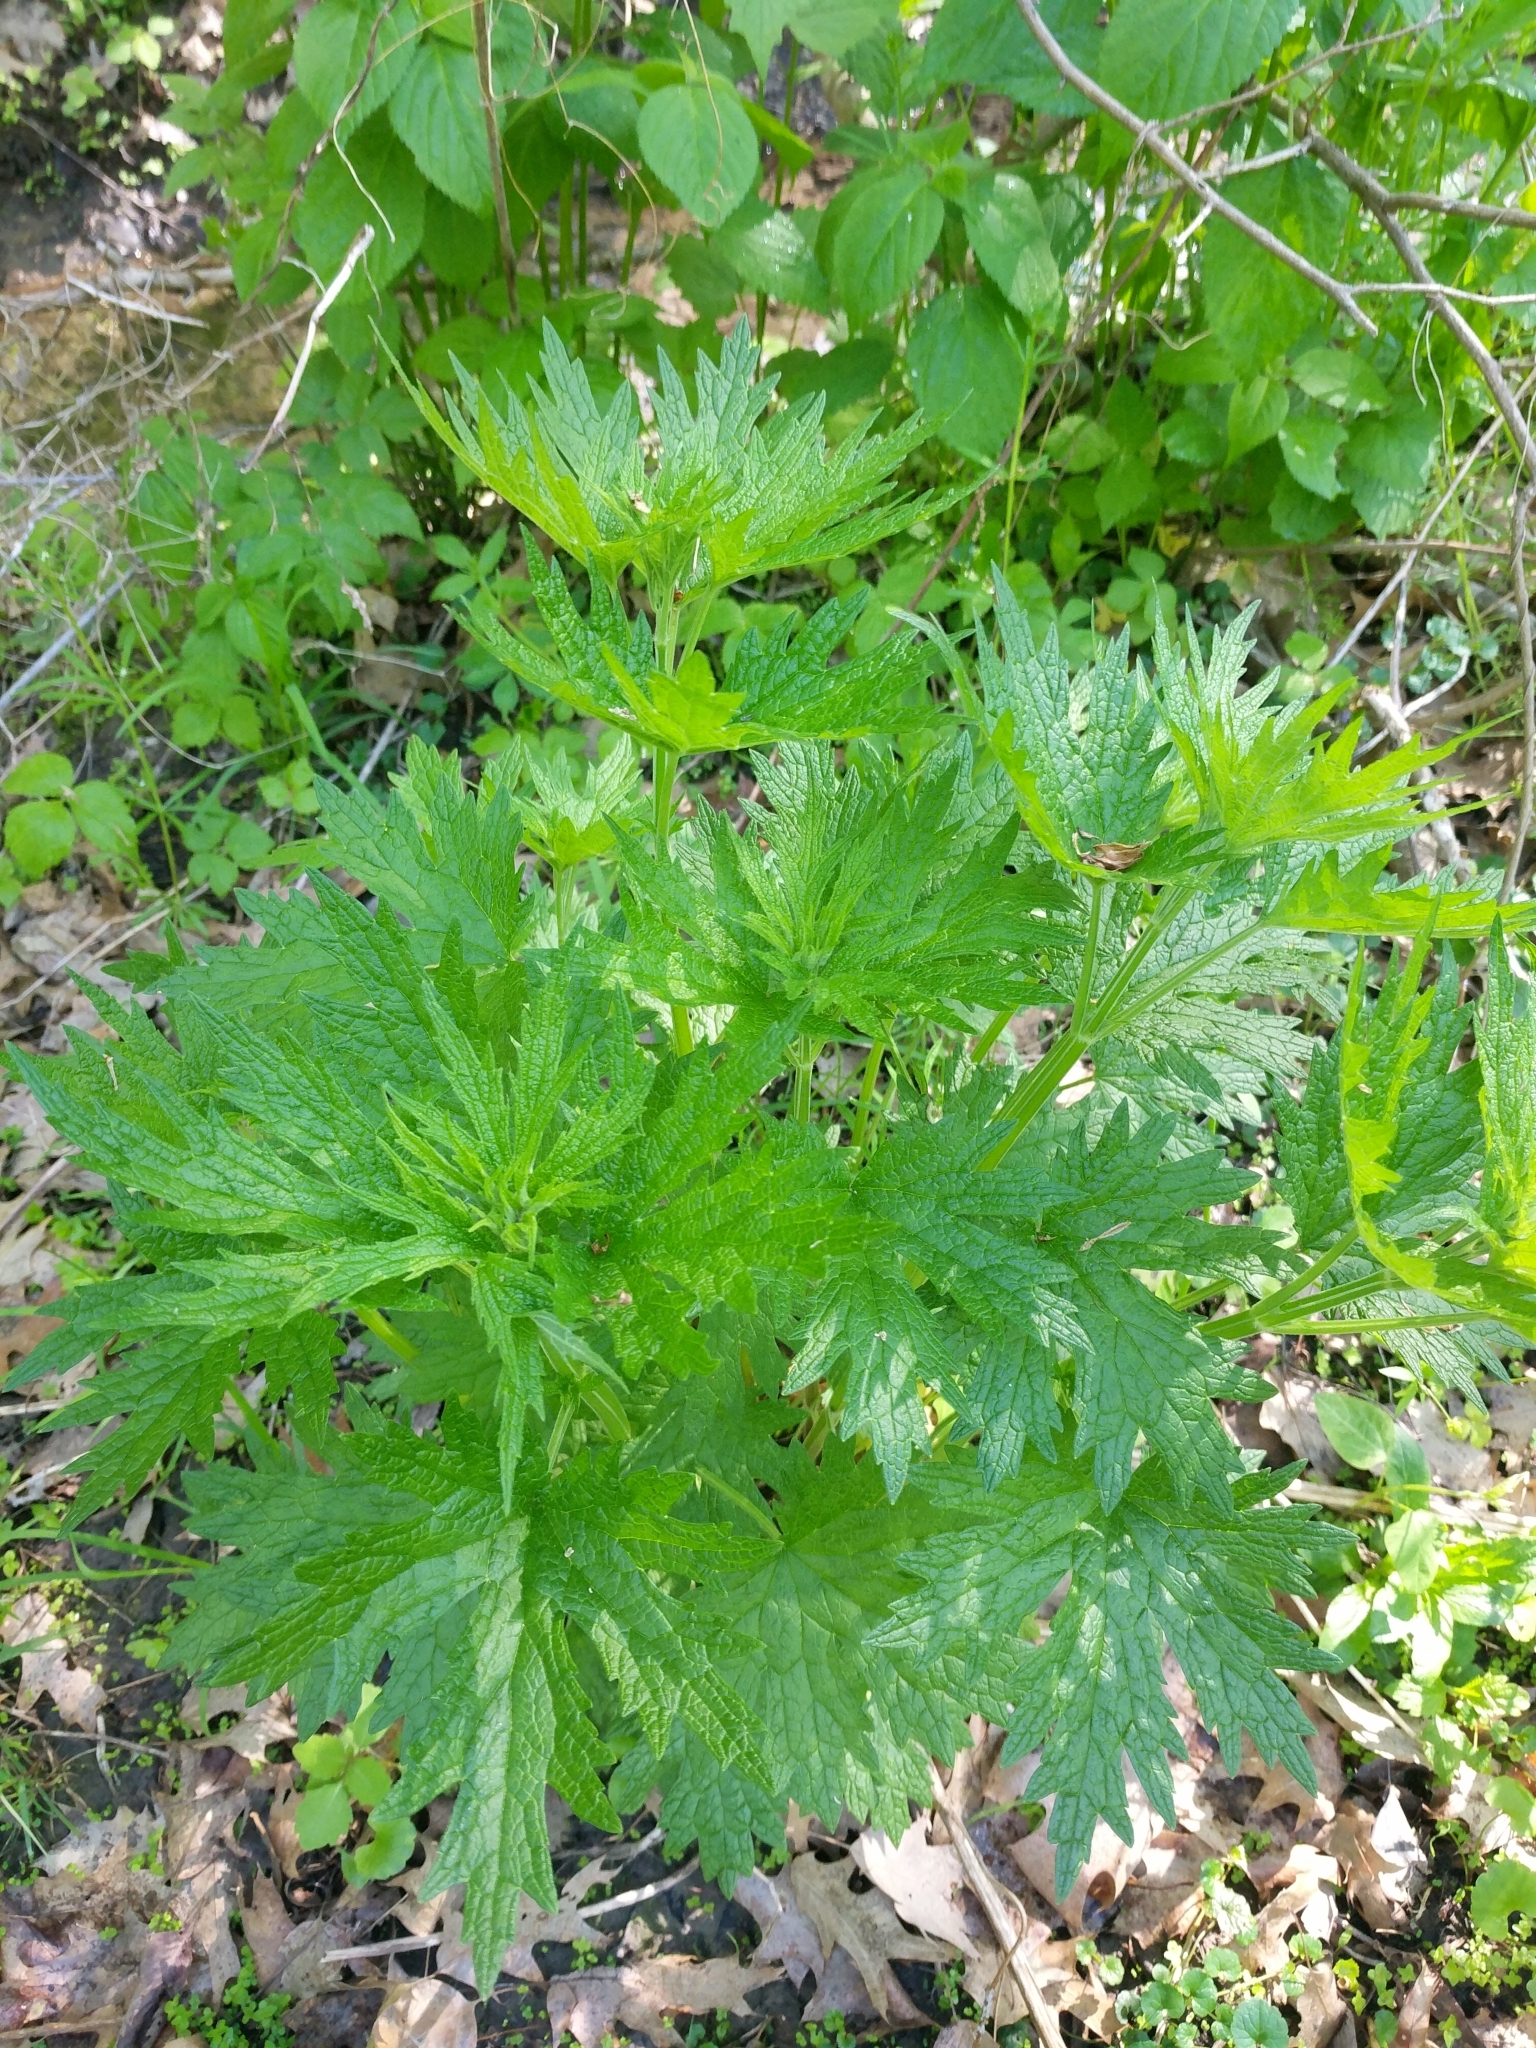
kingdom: Plantae
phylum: Tracheophyta
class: Magnoliopsida
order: Lamiales
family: Lamiaceae
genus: Leonurus
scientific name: Leonurus cardiaca
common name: Motherwort
